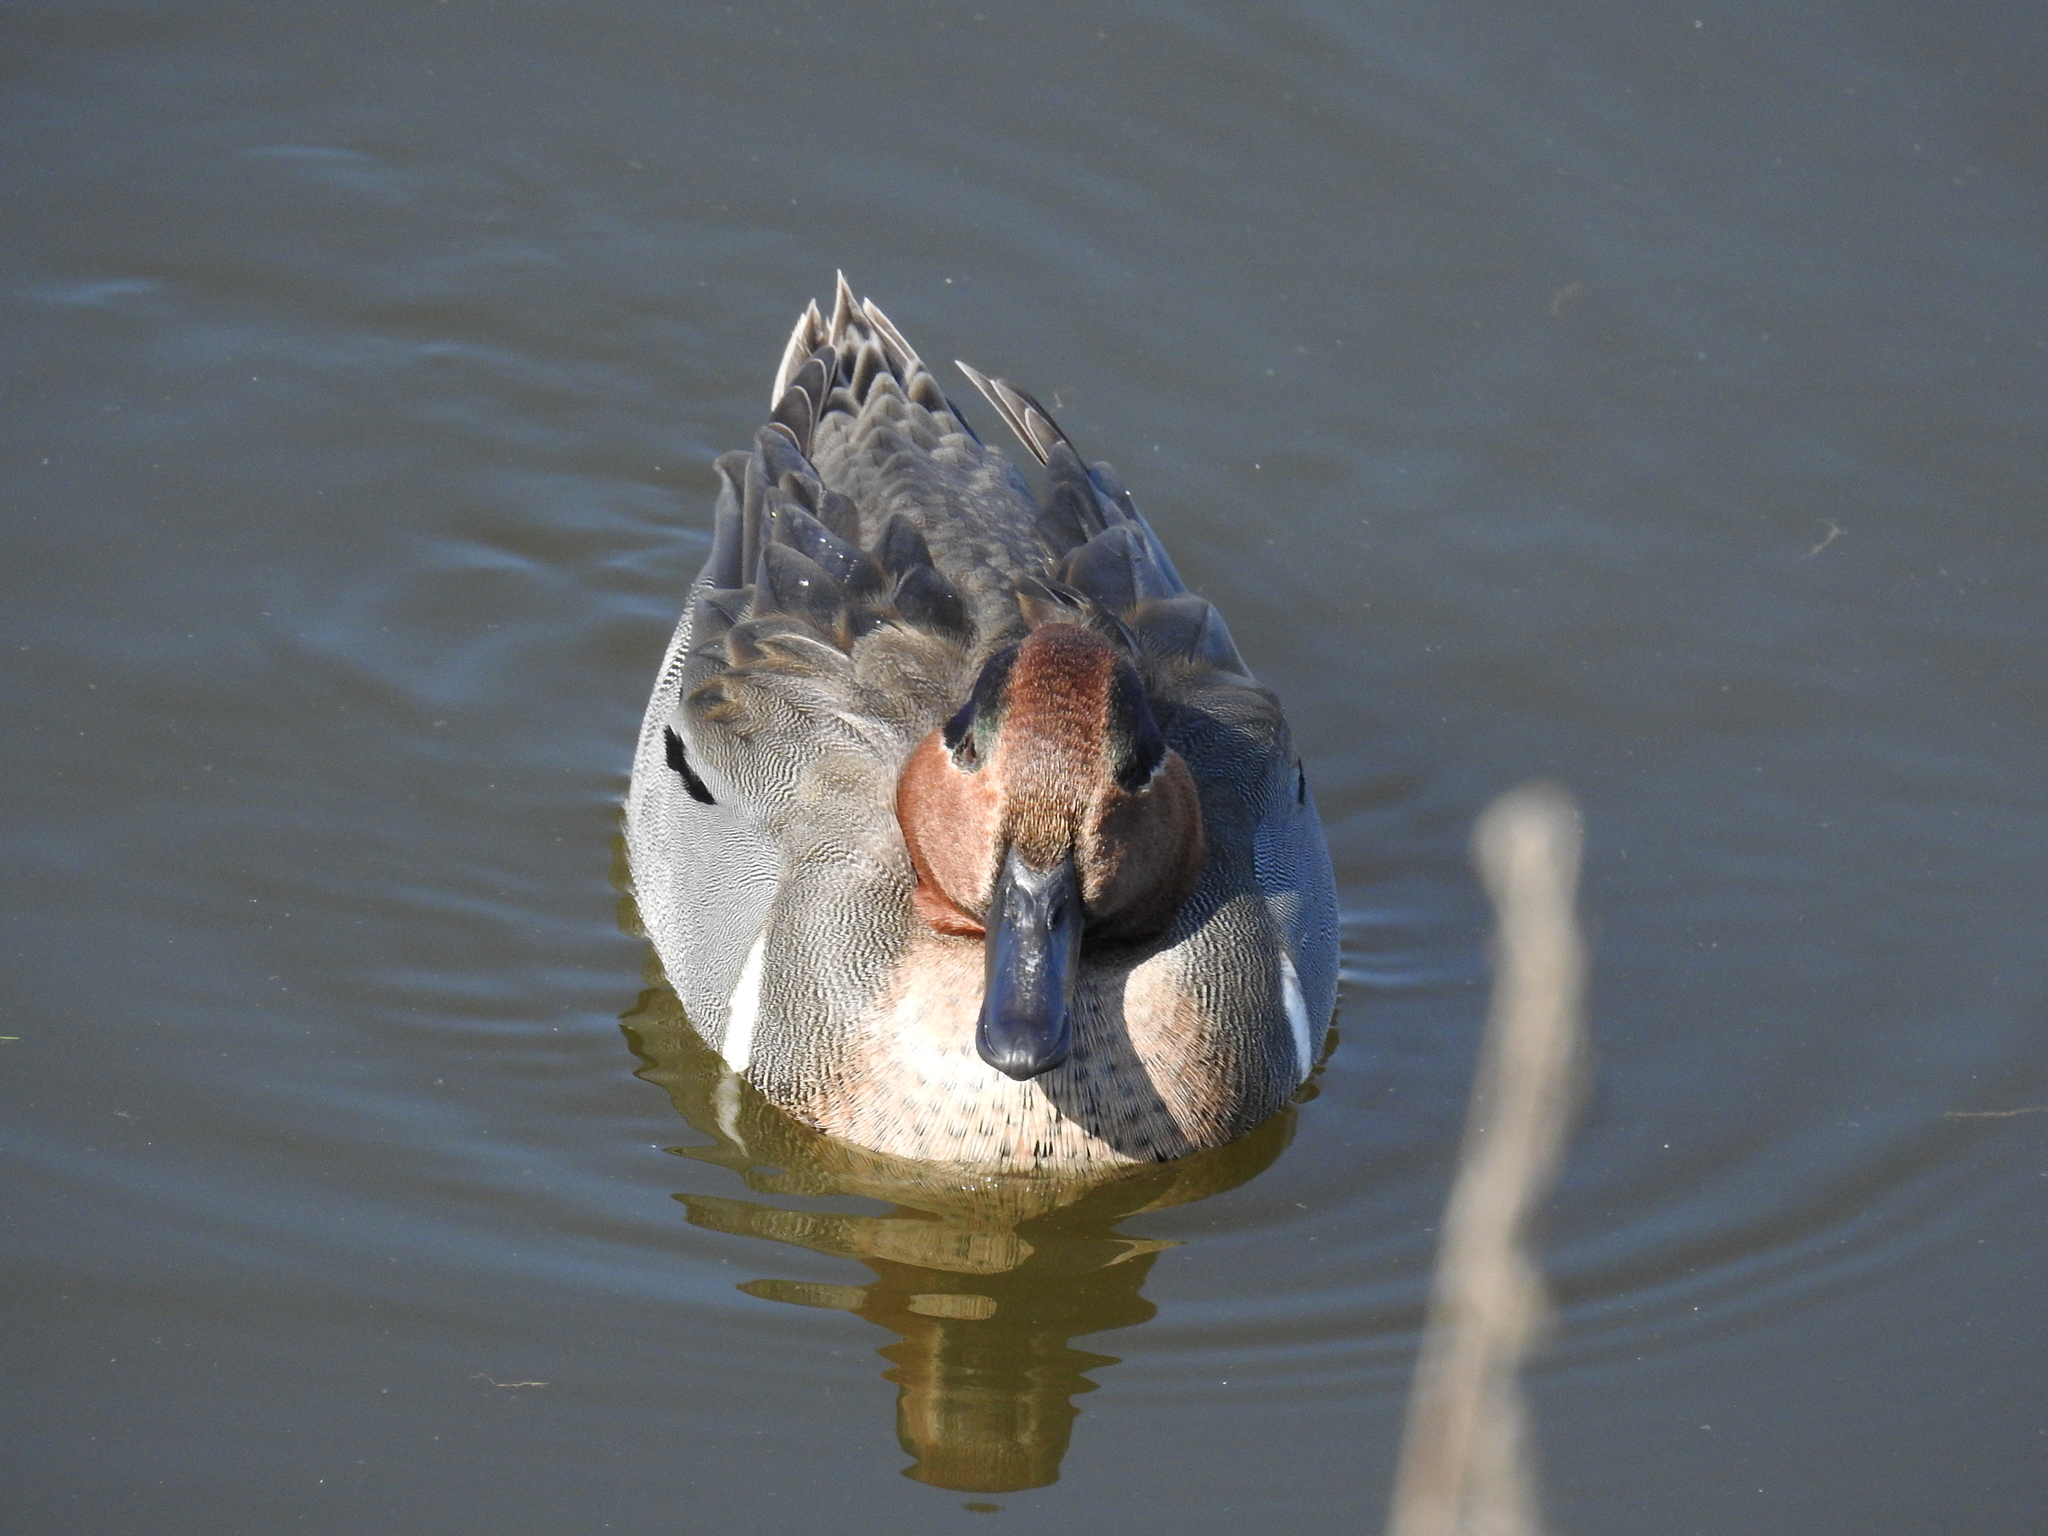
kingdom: Animalia
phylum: Chordata
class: Aves
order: Anseriformes
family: Anatidae
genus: Anas
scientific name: Anas crecca
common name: Eurasian teal
